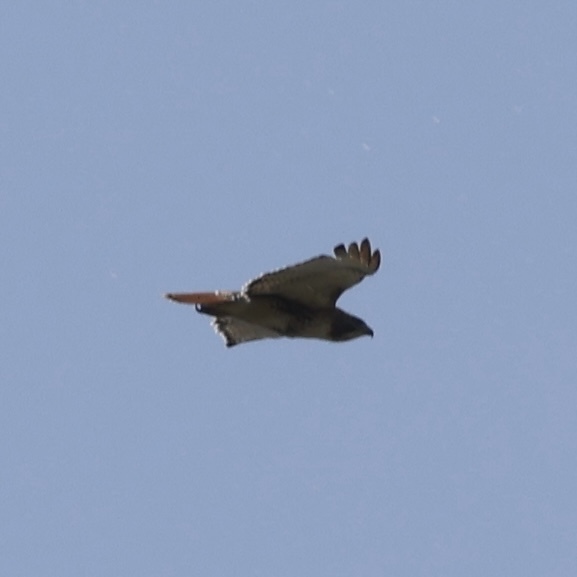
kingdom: Animalia
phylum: Chordata
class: Aves
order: Accipitriformes
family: Accipitridae
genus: Buteo
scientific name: Buteo jamaicensis
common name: Red-tailed hawk
